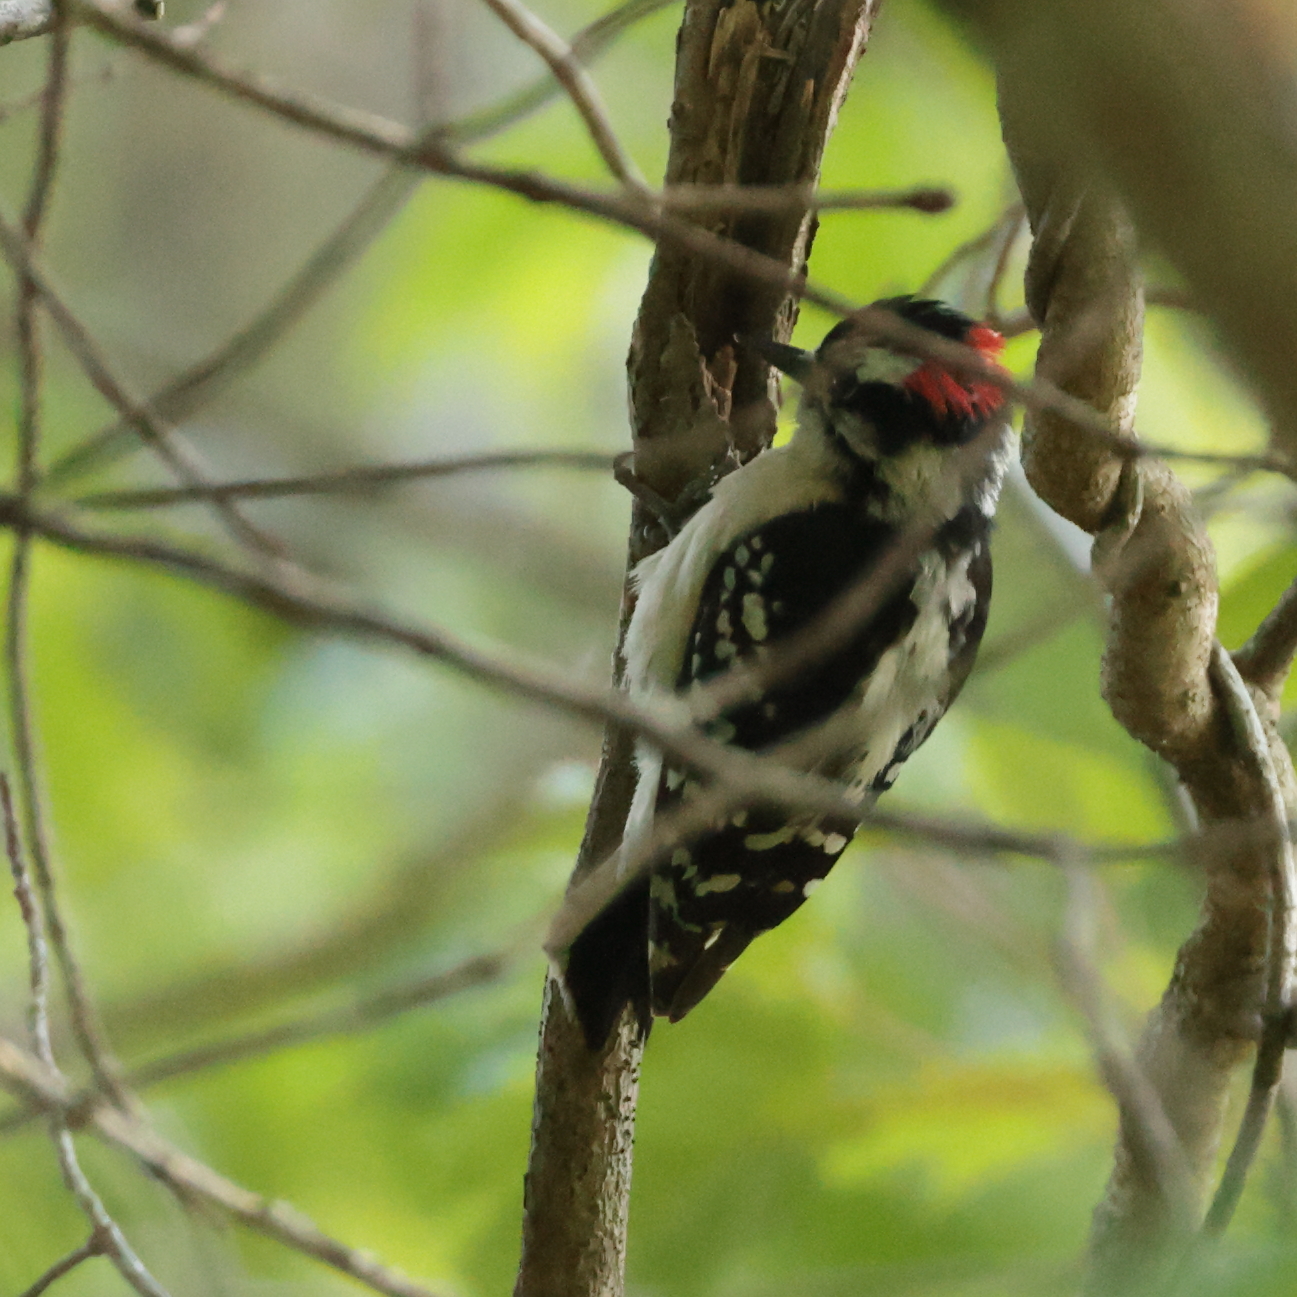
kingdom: Animalia
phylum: Chordata
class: Aves
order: Piciformes
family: Picidae
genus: Dryobates
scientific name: Dryobates pubescens
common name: Downy woodpecker
